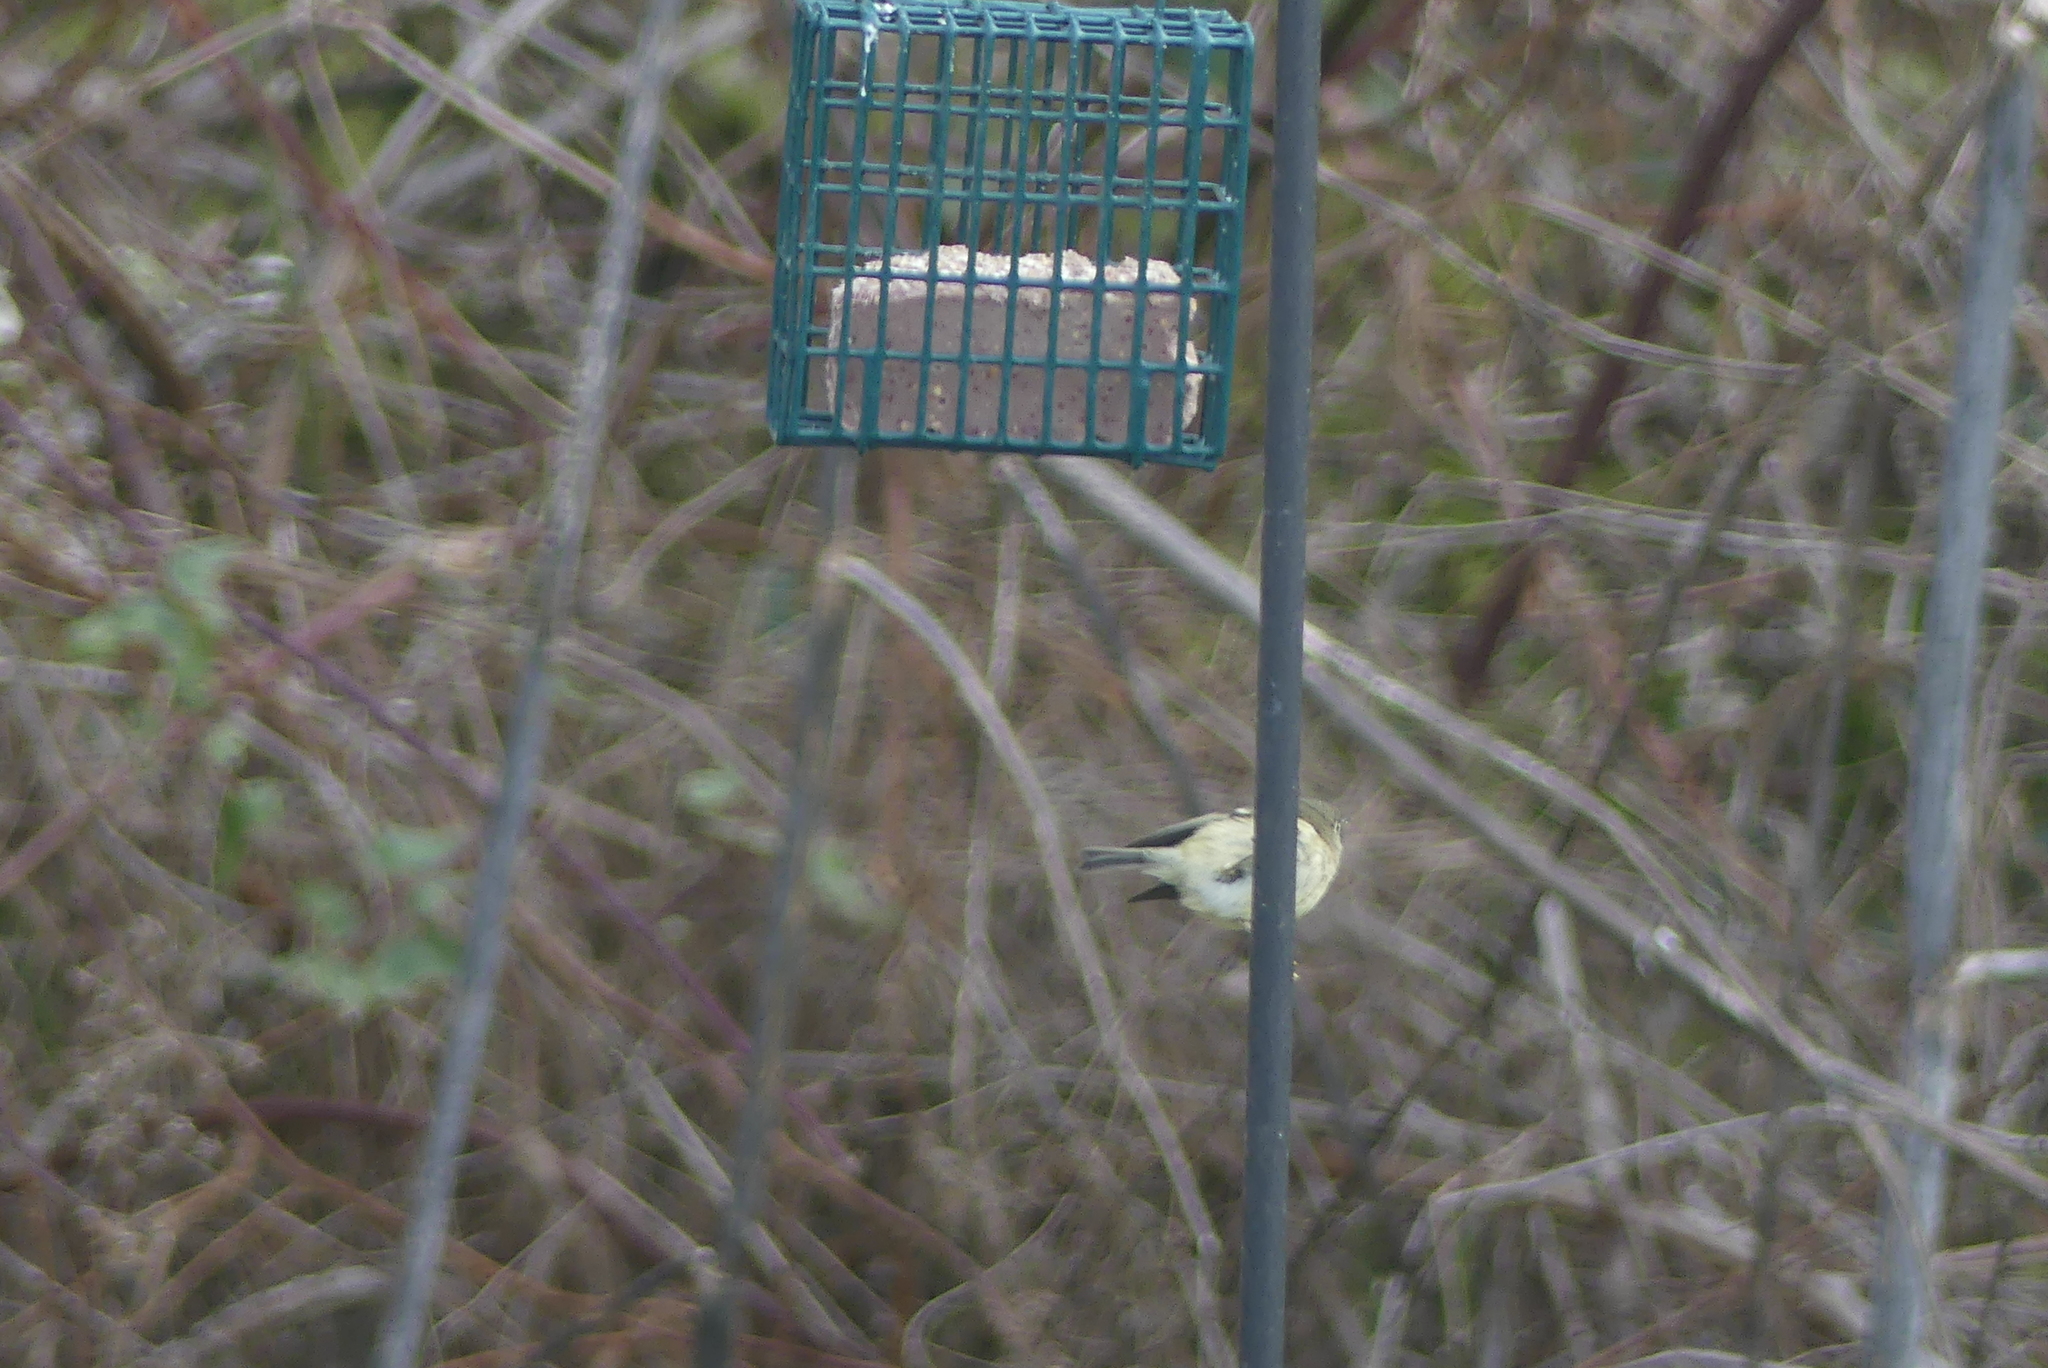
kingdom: Animalia
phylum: Chordata
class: Aves
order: Passeriformes
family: Regulidae
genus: Regulus
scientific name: Regulus calendula
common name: Ruby-crowned kinglet
